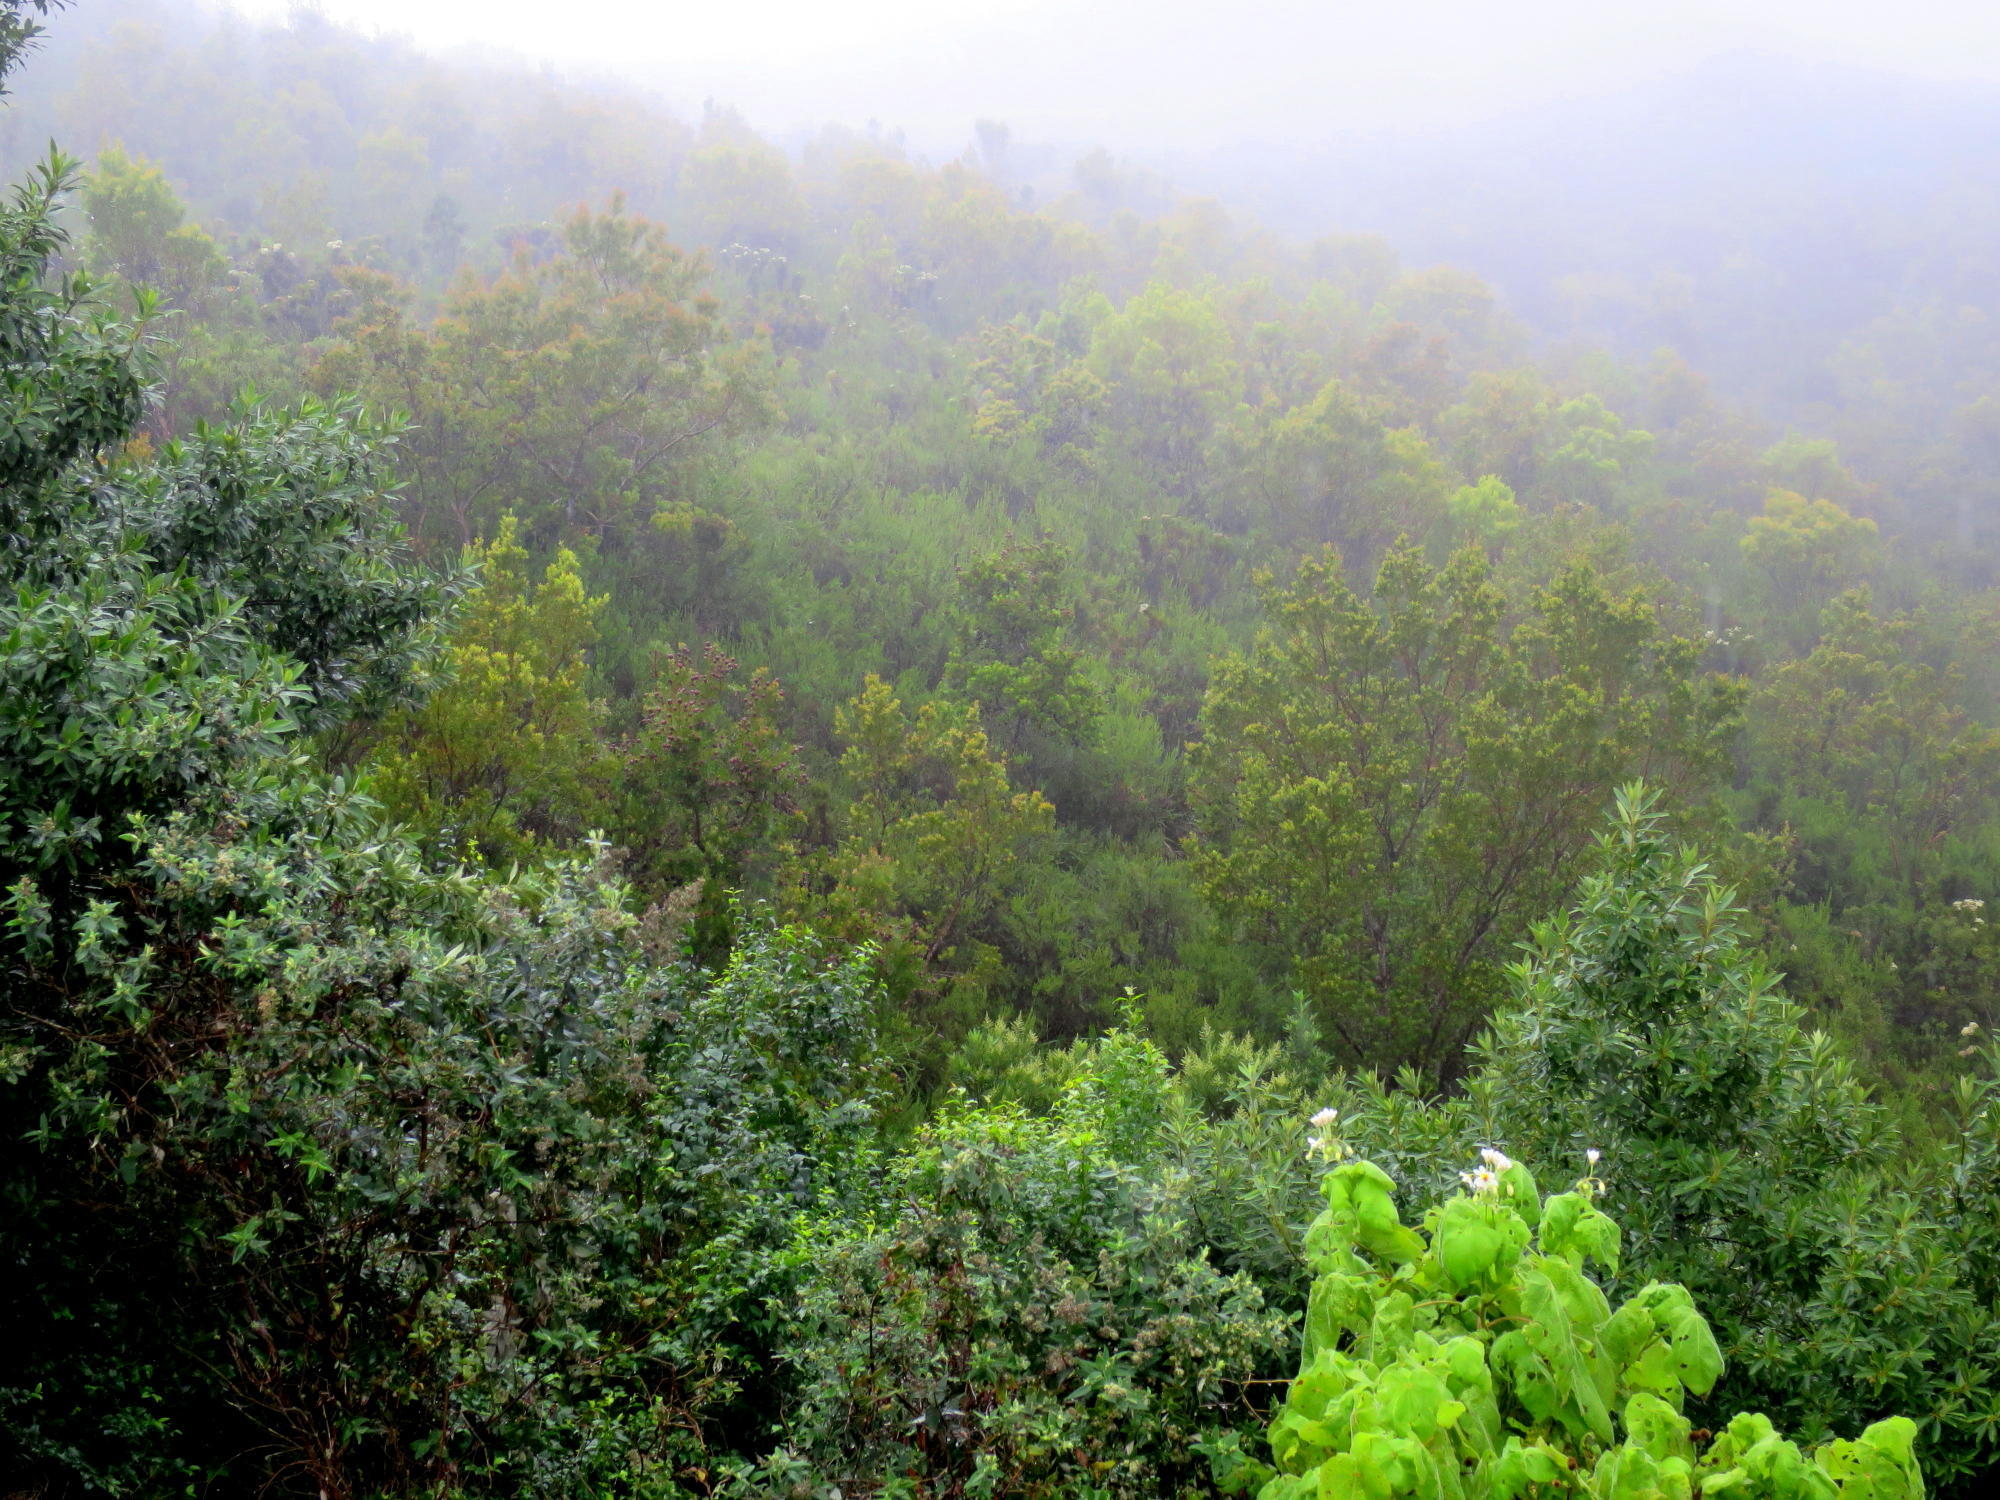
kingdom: Plantae
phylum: Tracheophyta
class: Magnoliopsida
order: Malvales
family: Malvaceae
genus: Sparrmannia
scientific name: Sparrmannia africana
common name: African-hemp
